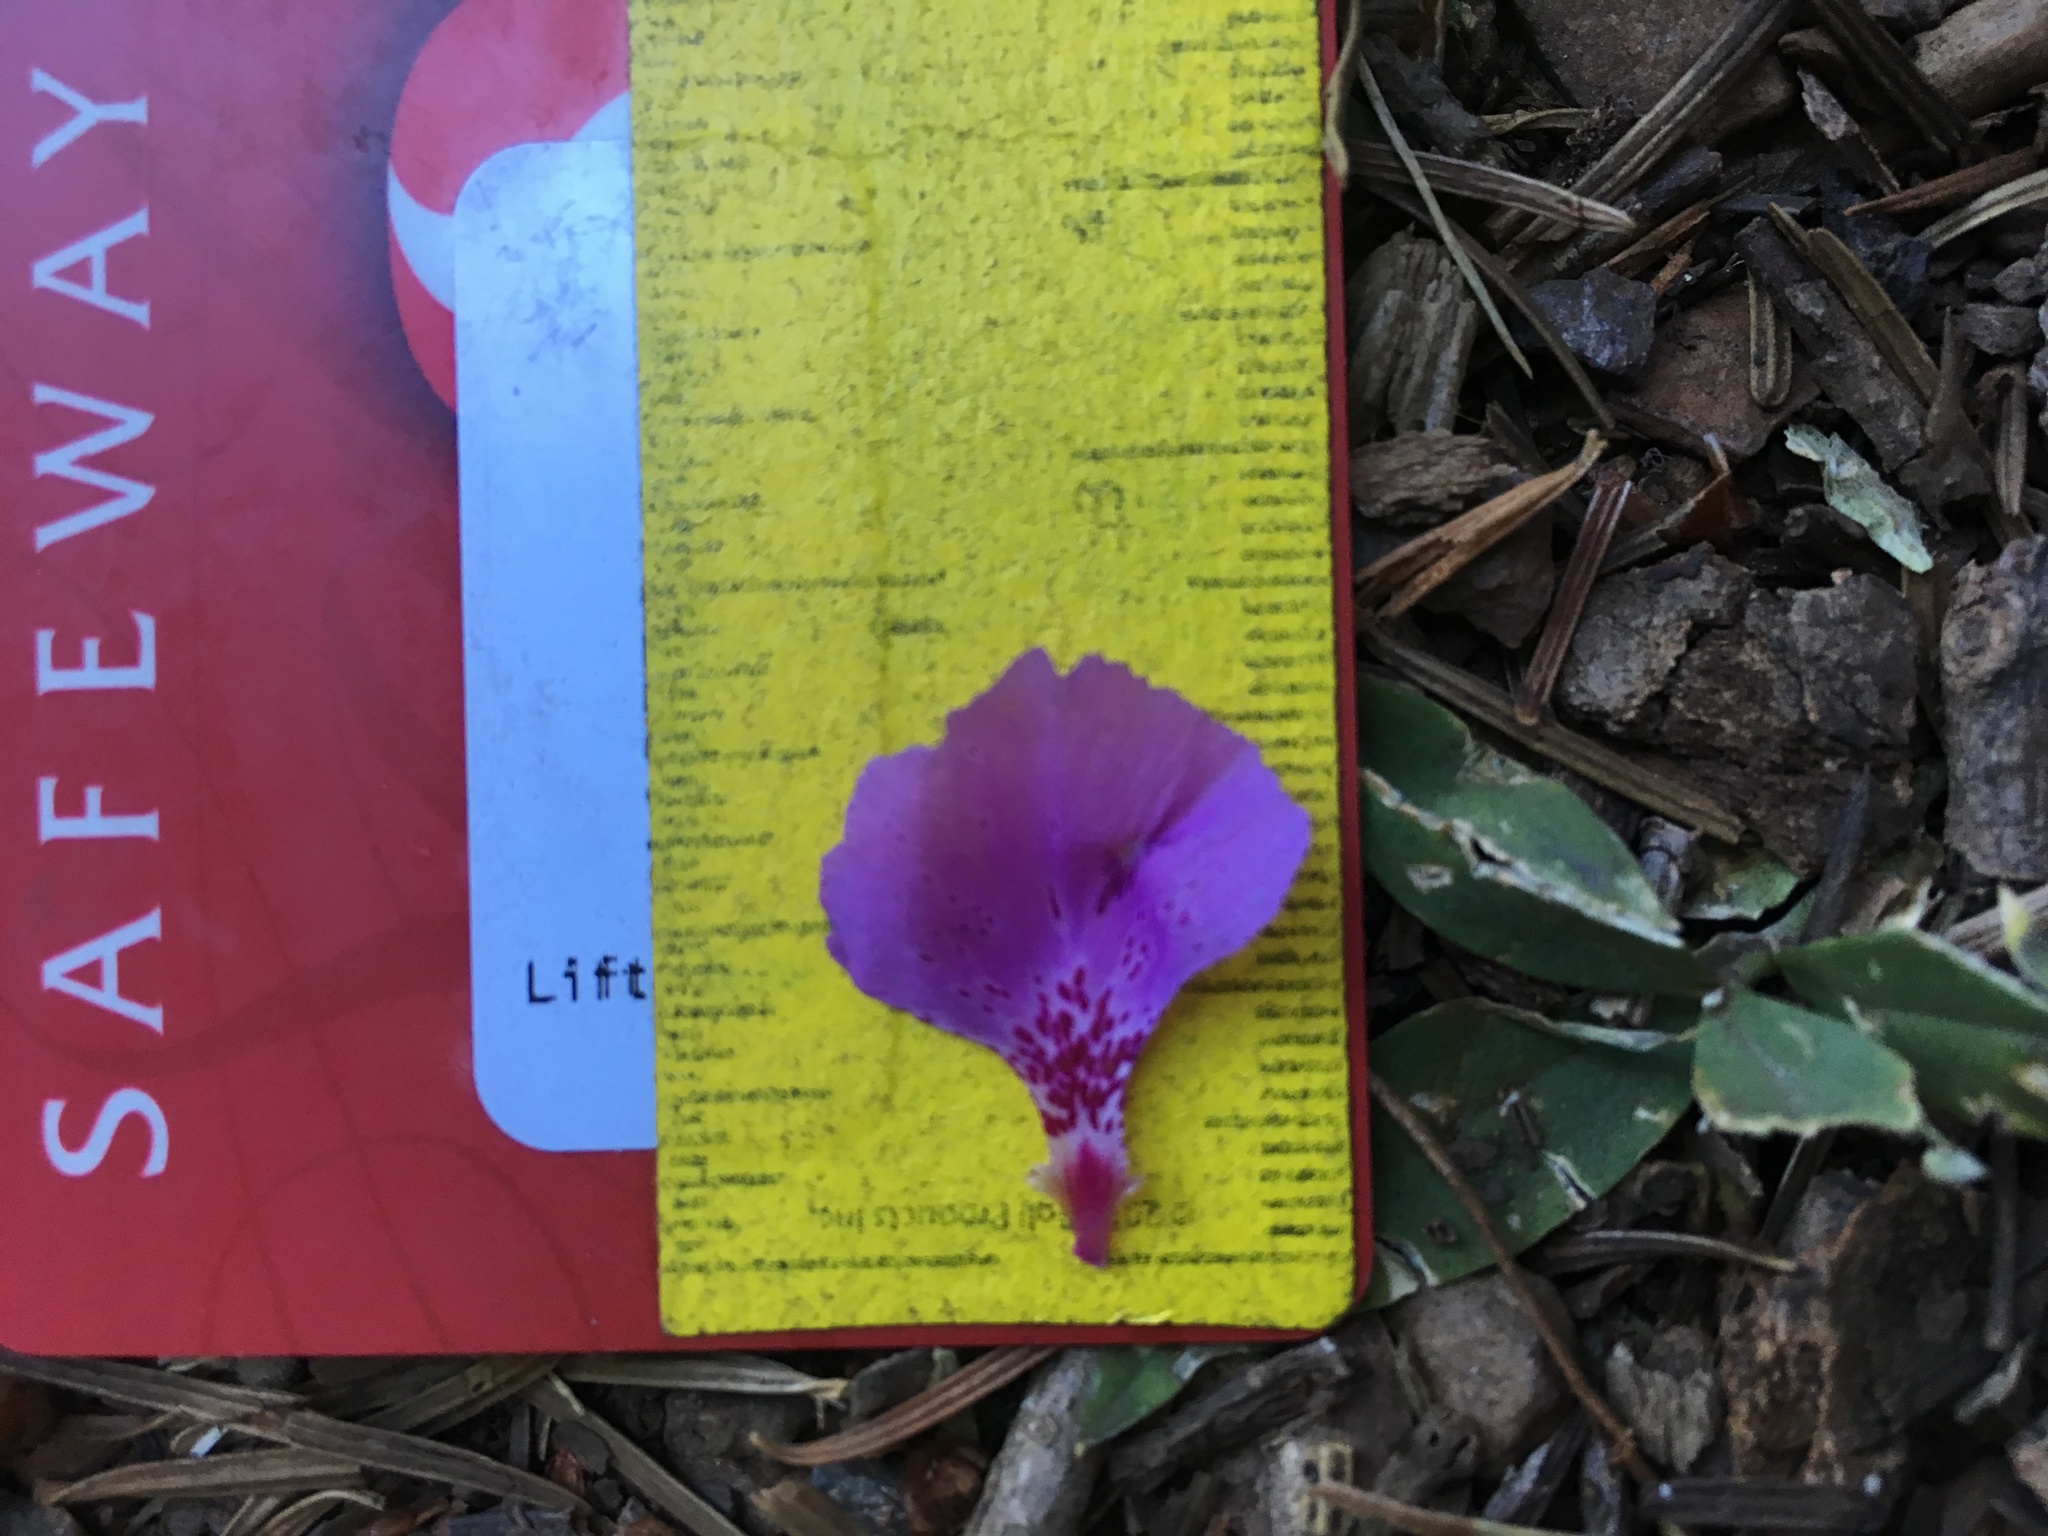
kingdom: Plantae
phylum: Tracheophyta
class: Magnoliopsida
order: Myrtales
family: Onagraceae
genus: Clarkia
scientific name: Clarkia mildrediae
